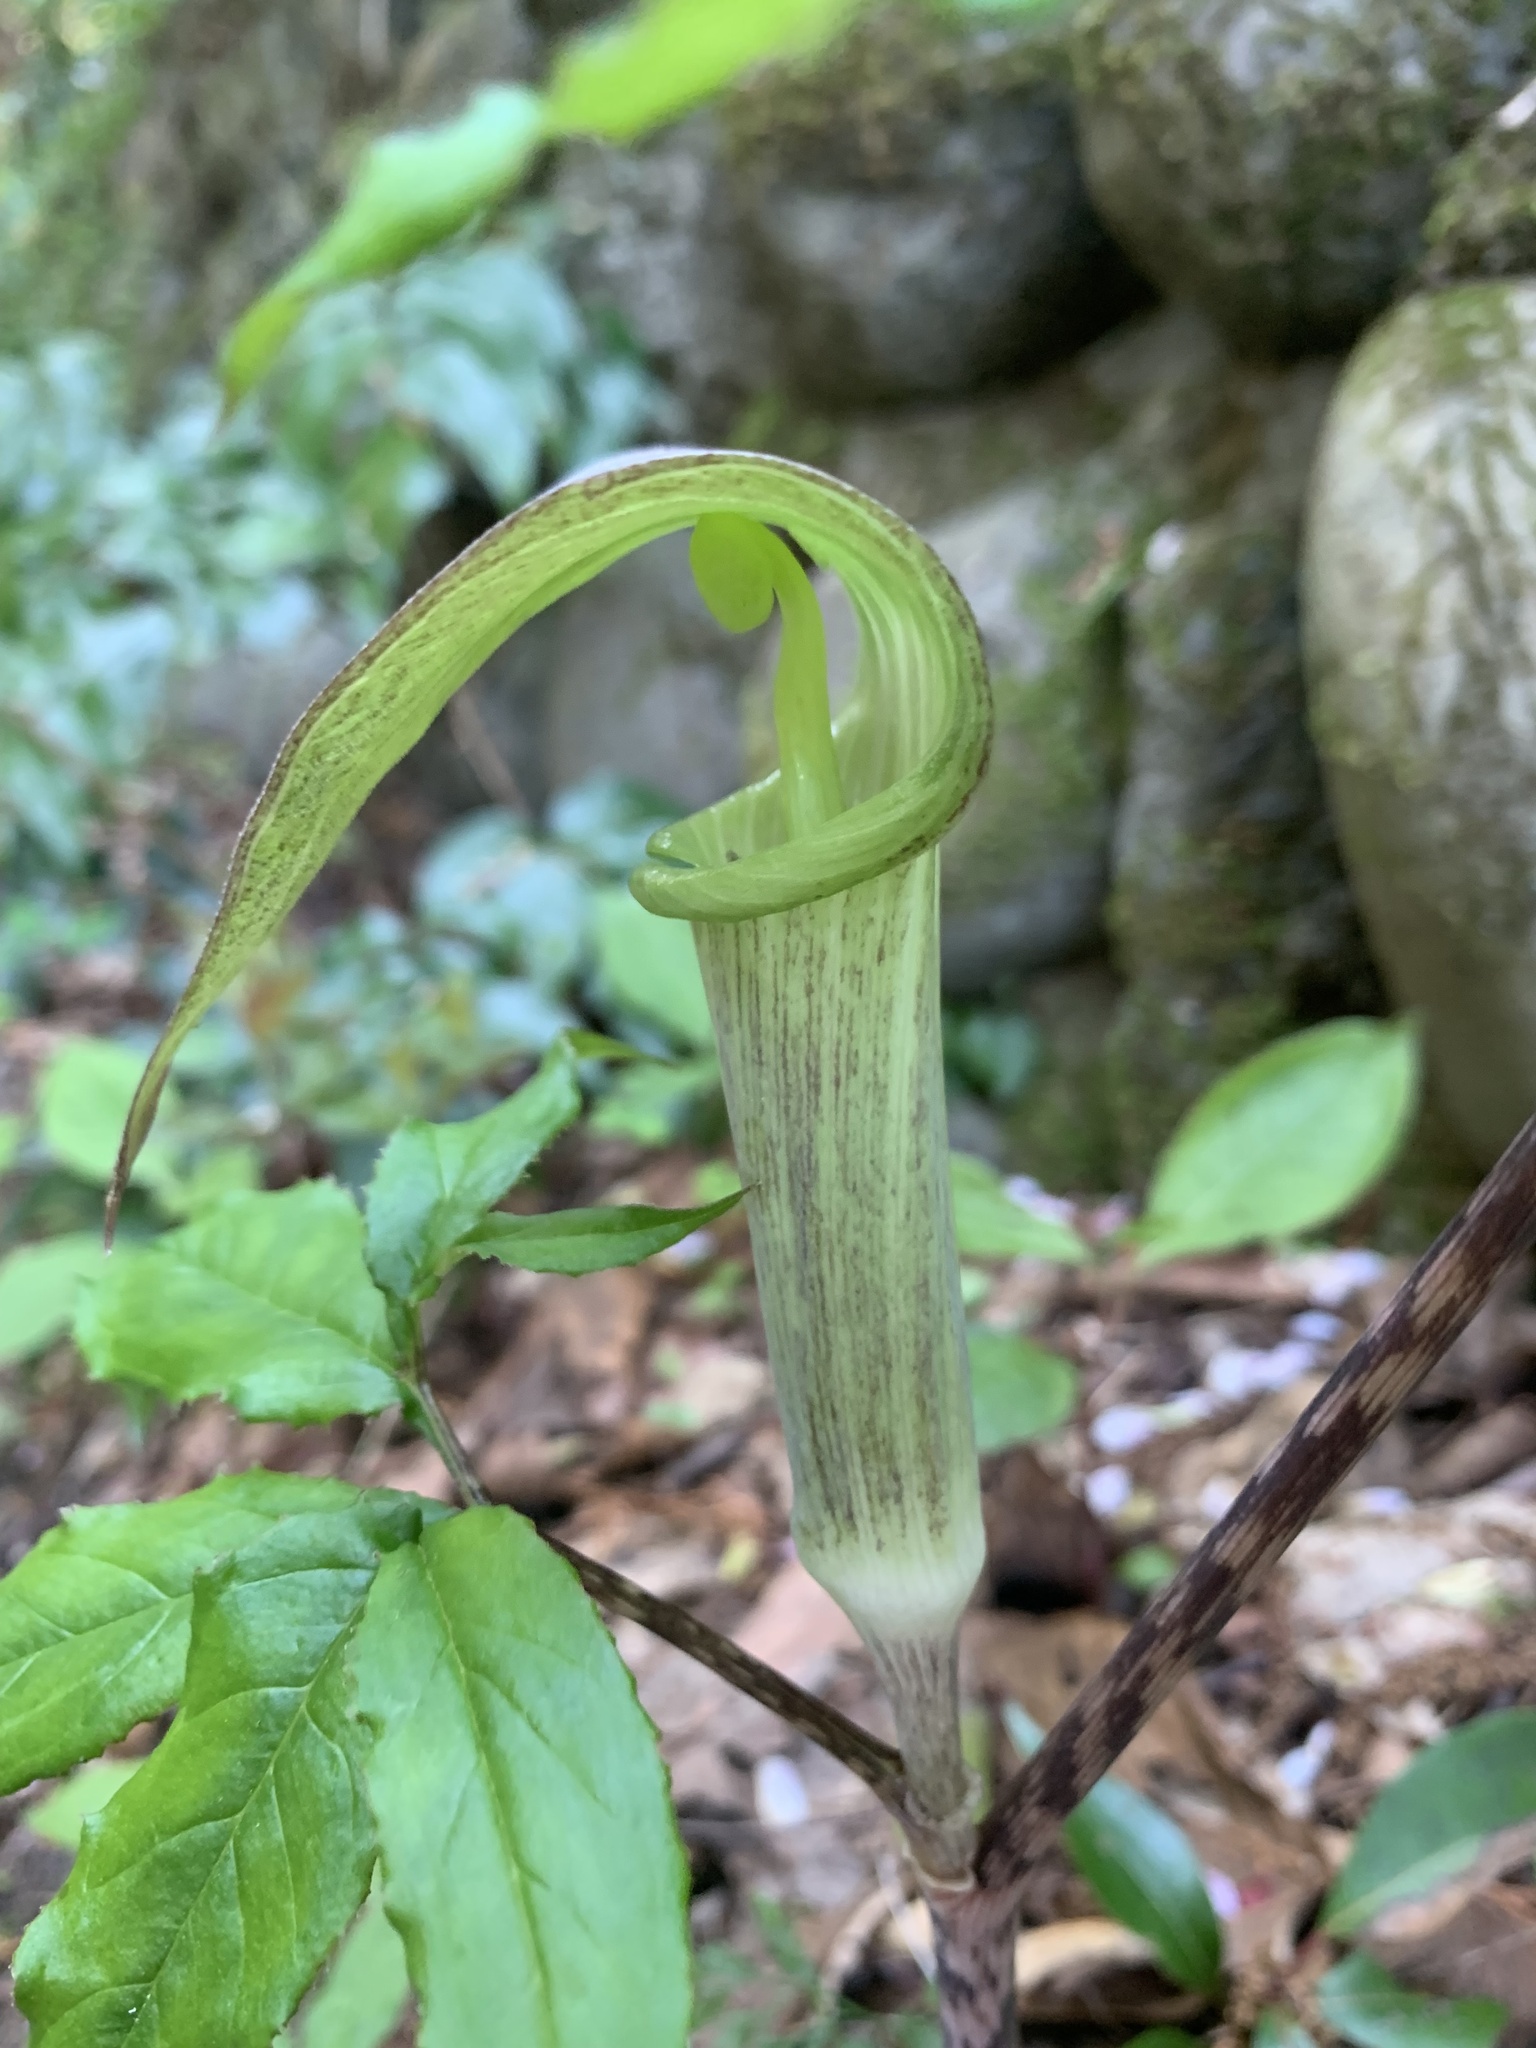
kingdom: Plantae
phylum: Tracheophyta
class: Liliopsida
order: Alismatales
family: Araceae
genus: Arisaema
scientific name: Arisaema yamatense
